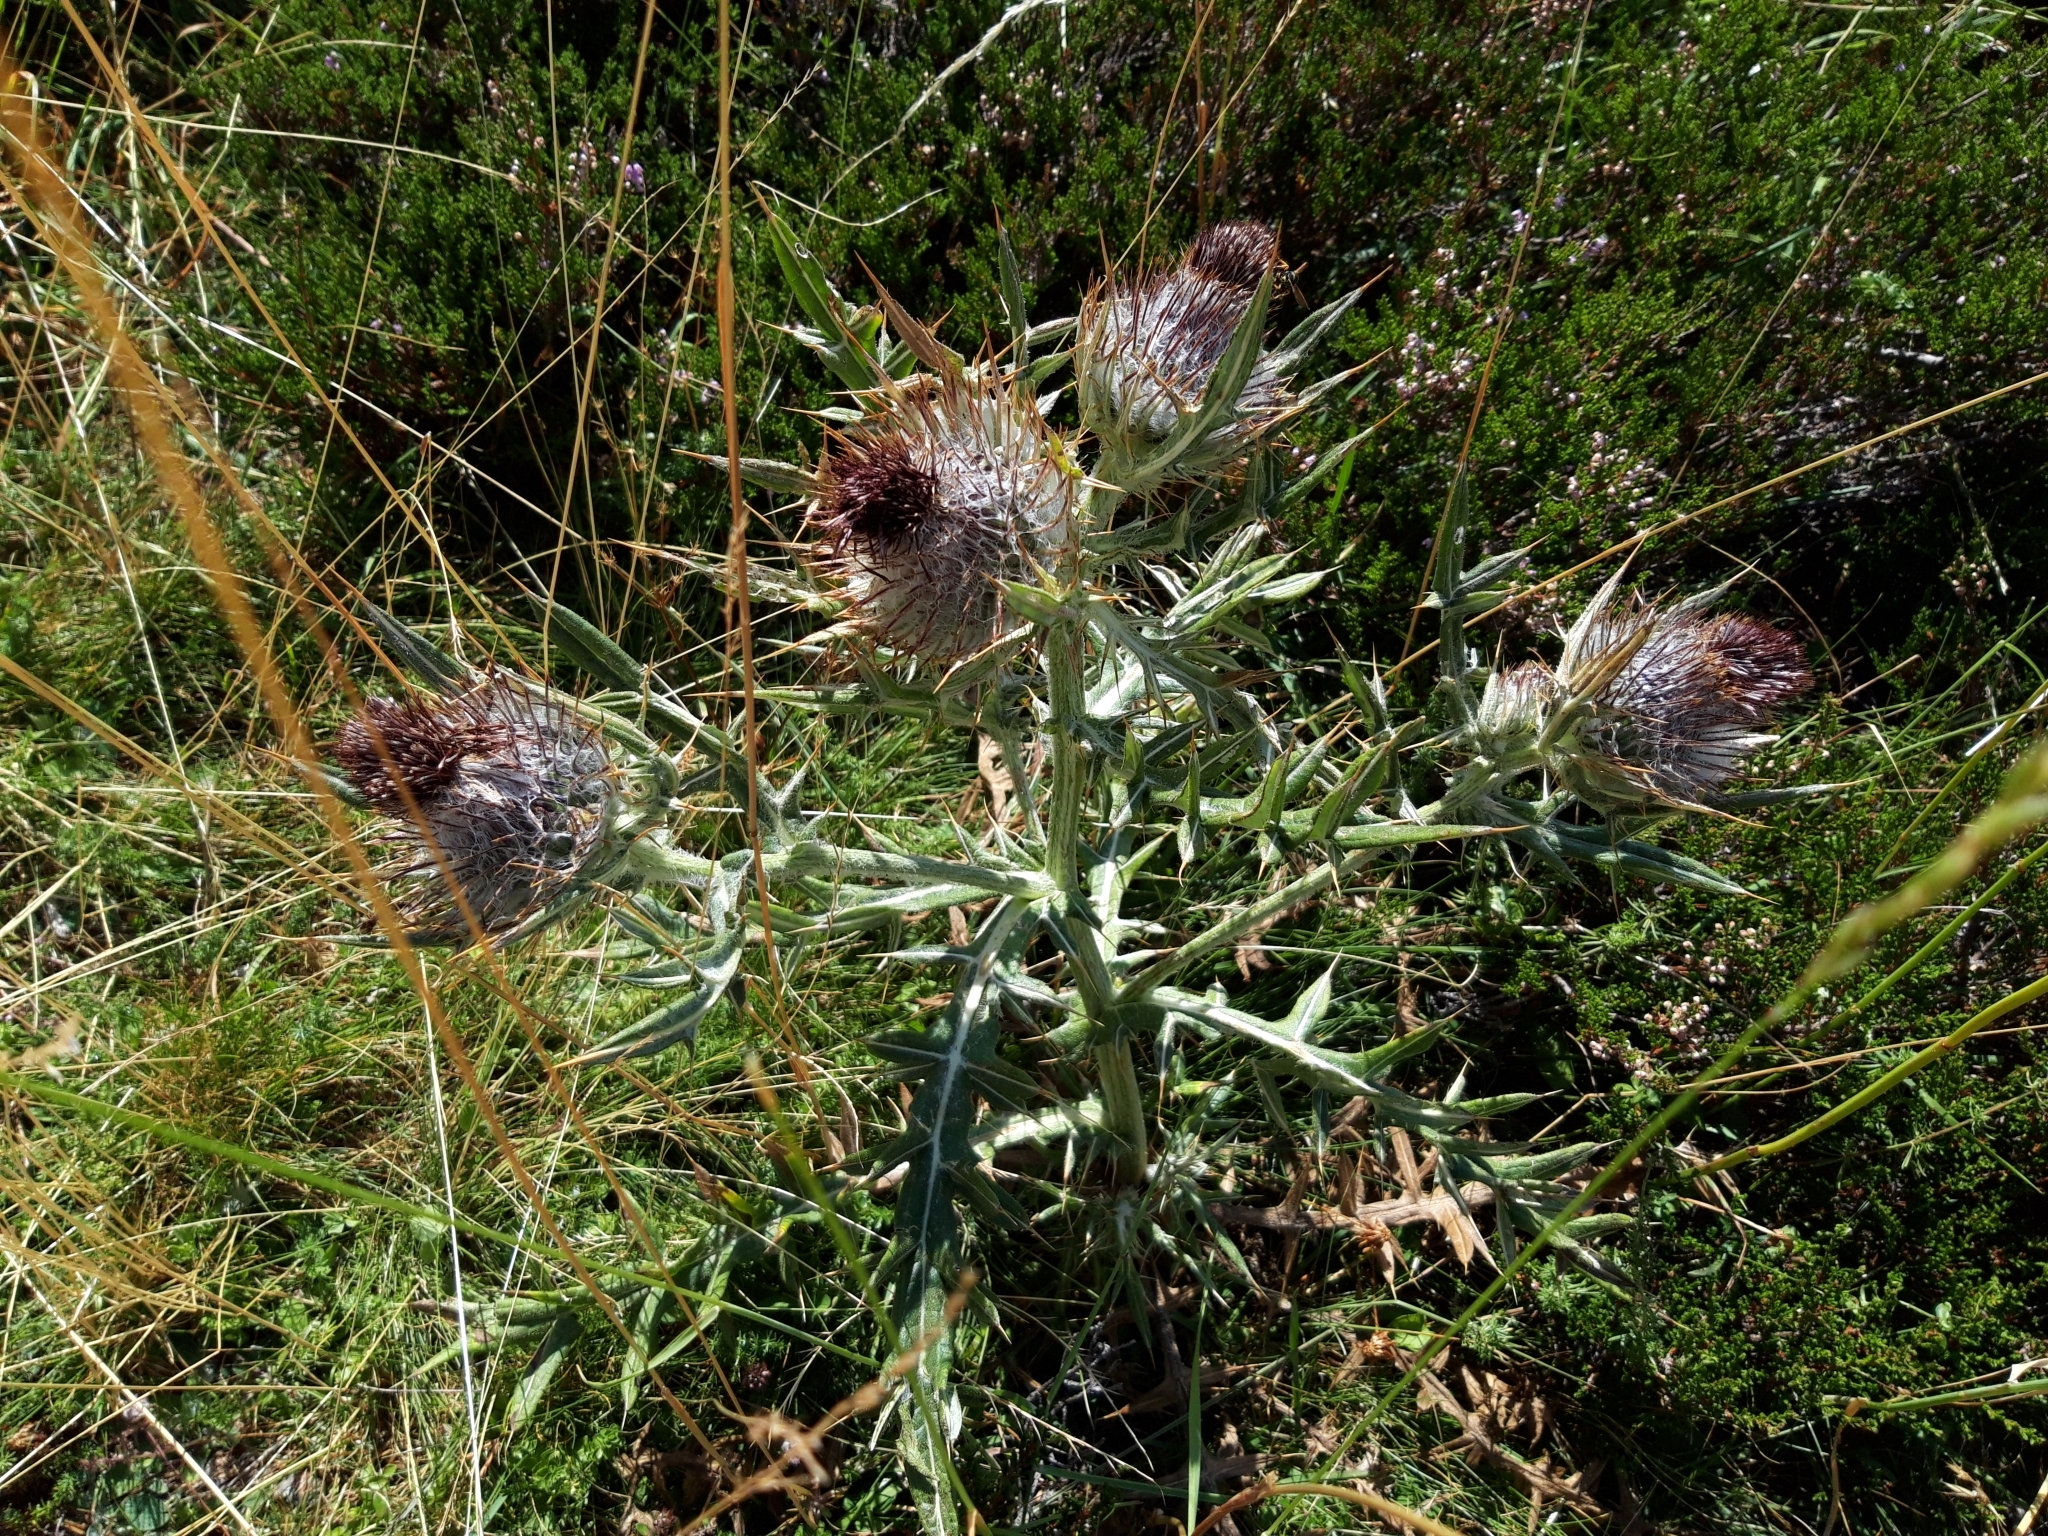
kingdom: Plantae
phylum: Tracheophyta
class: Magnoliopsida
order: Asterales
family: Asteraceae
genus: Lophiolepis
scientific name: Lophiolepis eriophora
